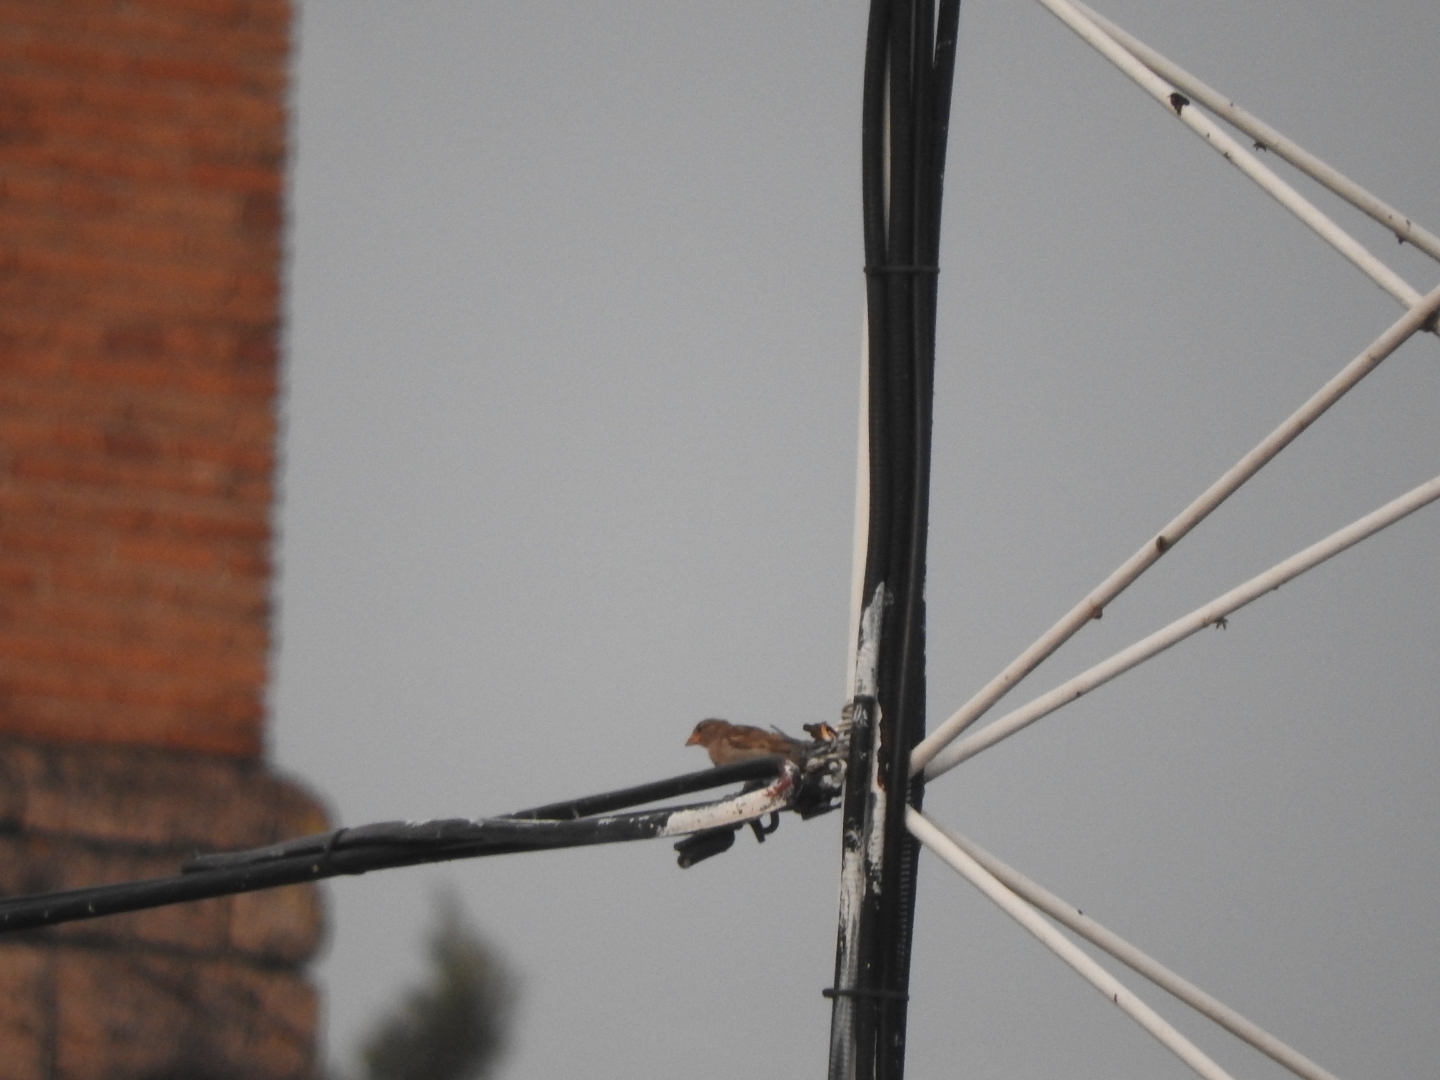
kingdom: Animalia
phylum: Chordata
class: Aves
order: Passeriformes
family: Passeridae
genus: Passer
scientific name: Passer domesticus
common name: House sparrow
